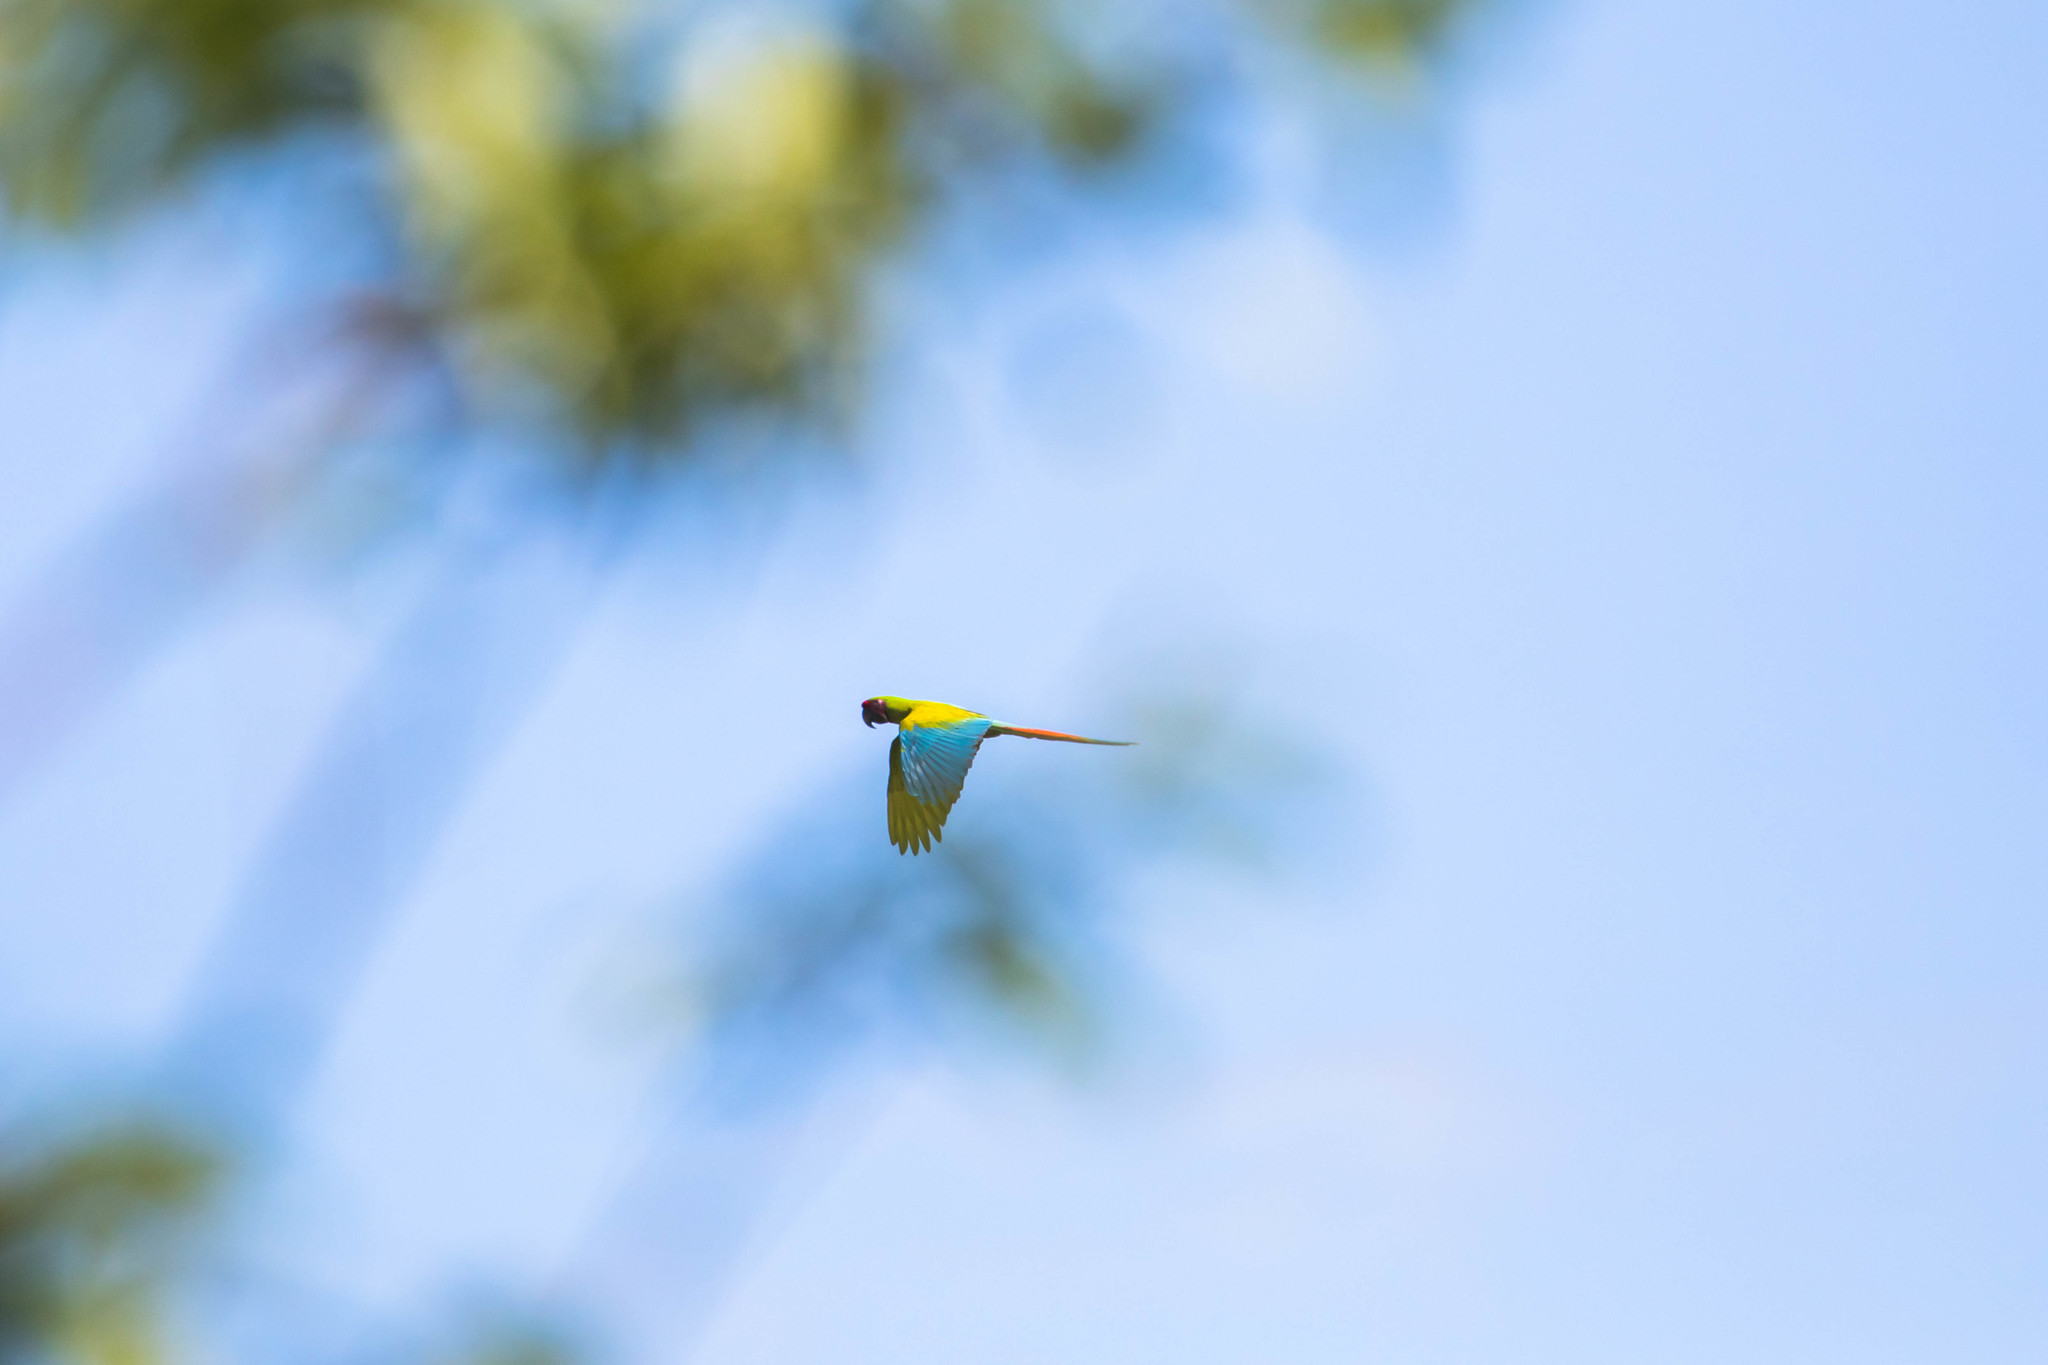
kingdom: Animalia
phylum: Chordata
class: Aves
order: Psittaciformes
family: Psittacidae
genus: Ara
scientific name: Ara ambiguus
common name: Great green macaw
